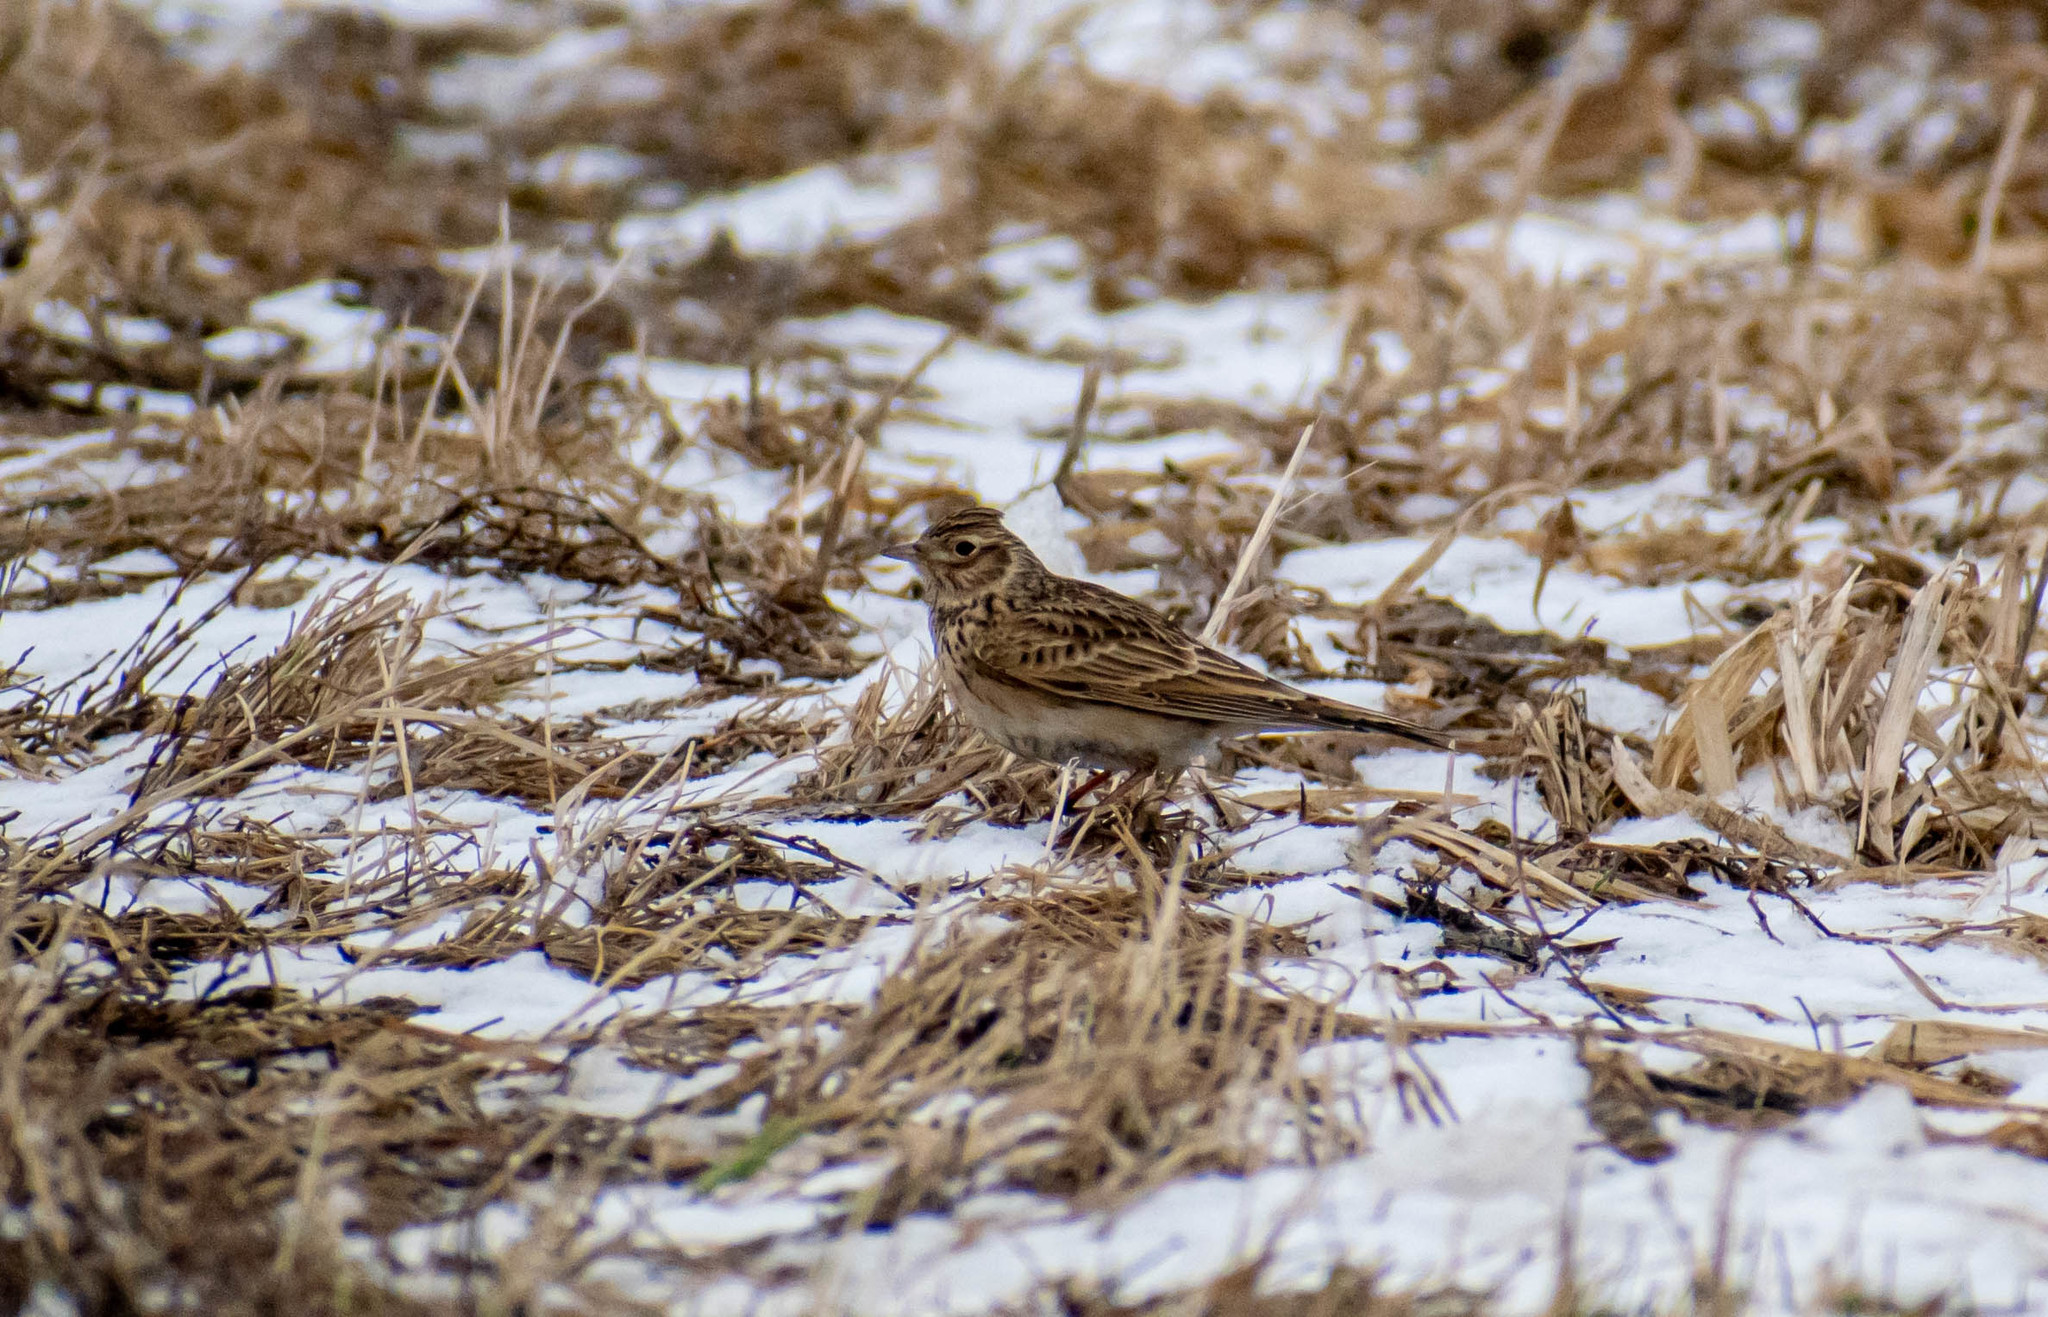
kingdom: Animalia
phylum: Chordata
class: Aves
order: Passeriformes
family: Alaudidae
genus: Alauda
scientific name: Alauda arvensis
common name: Eurasian skylark
